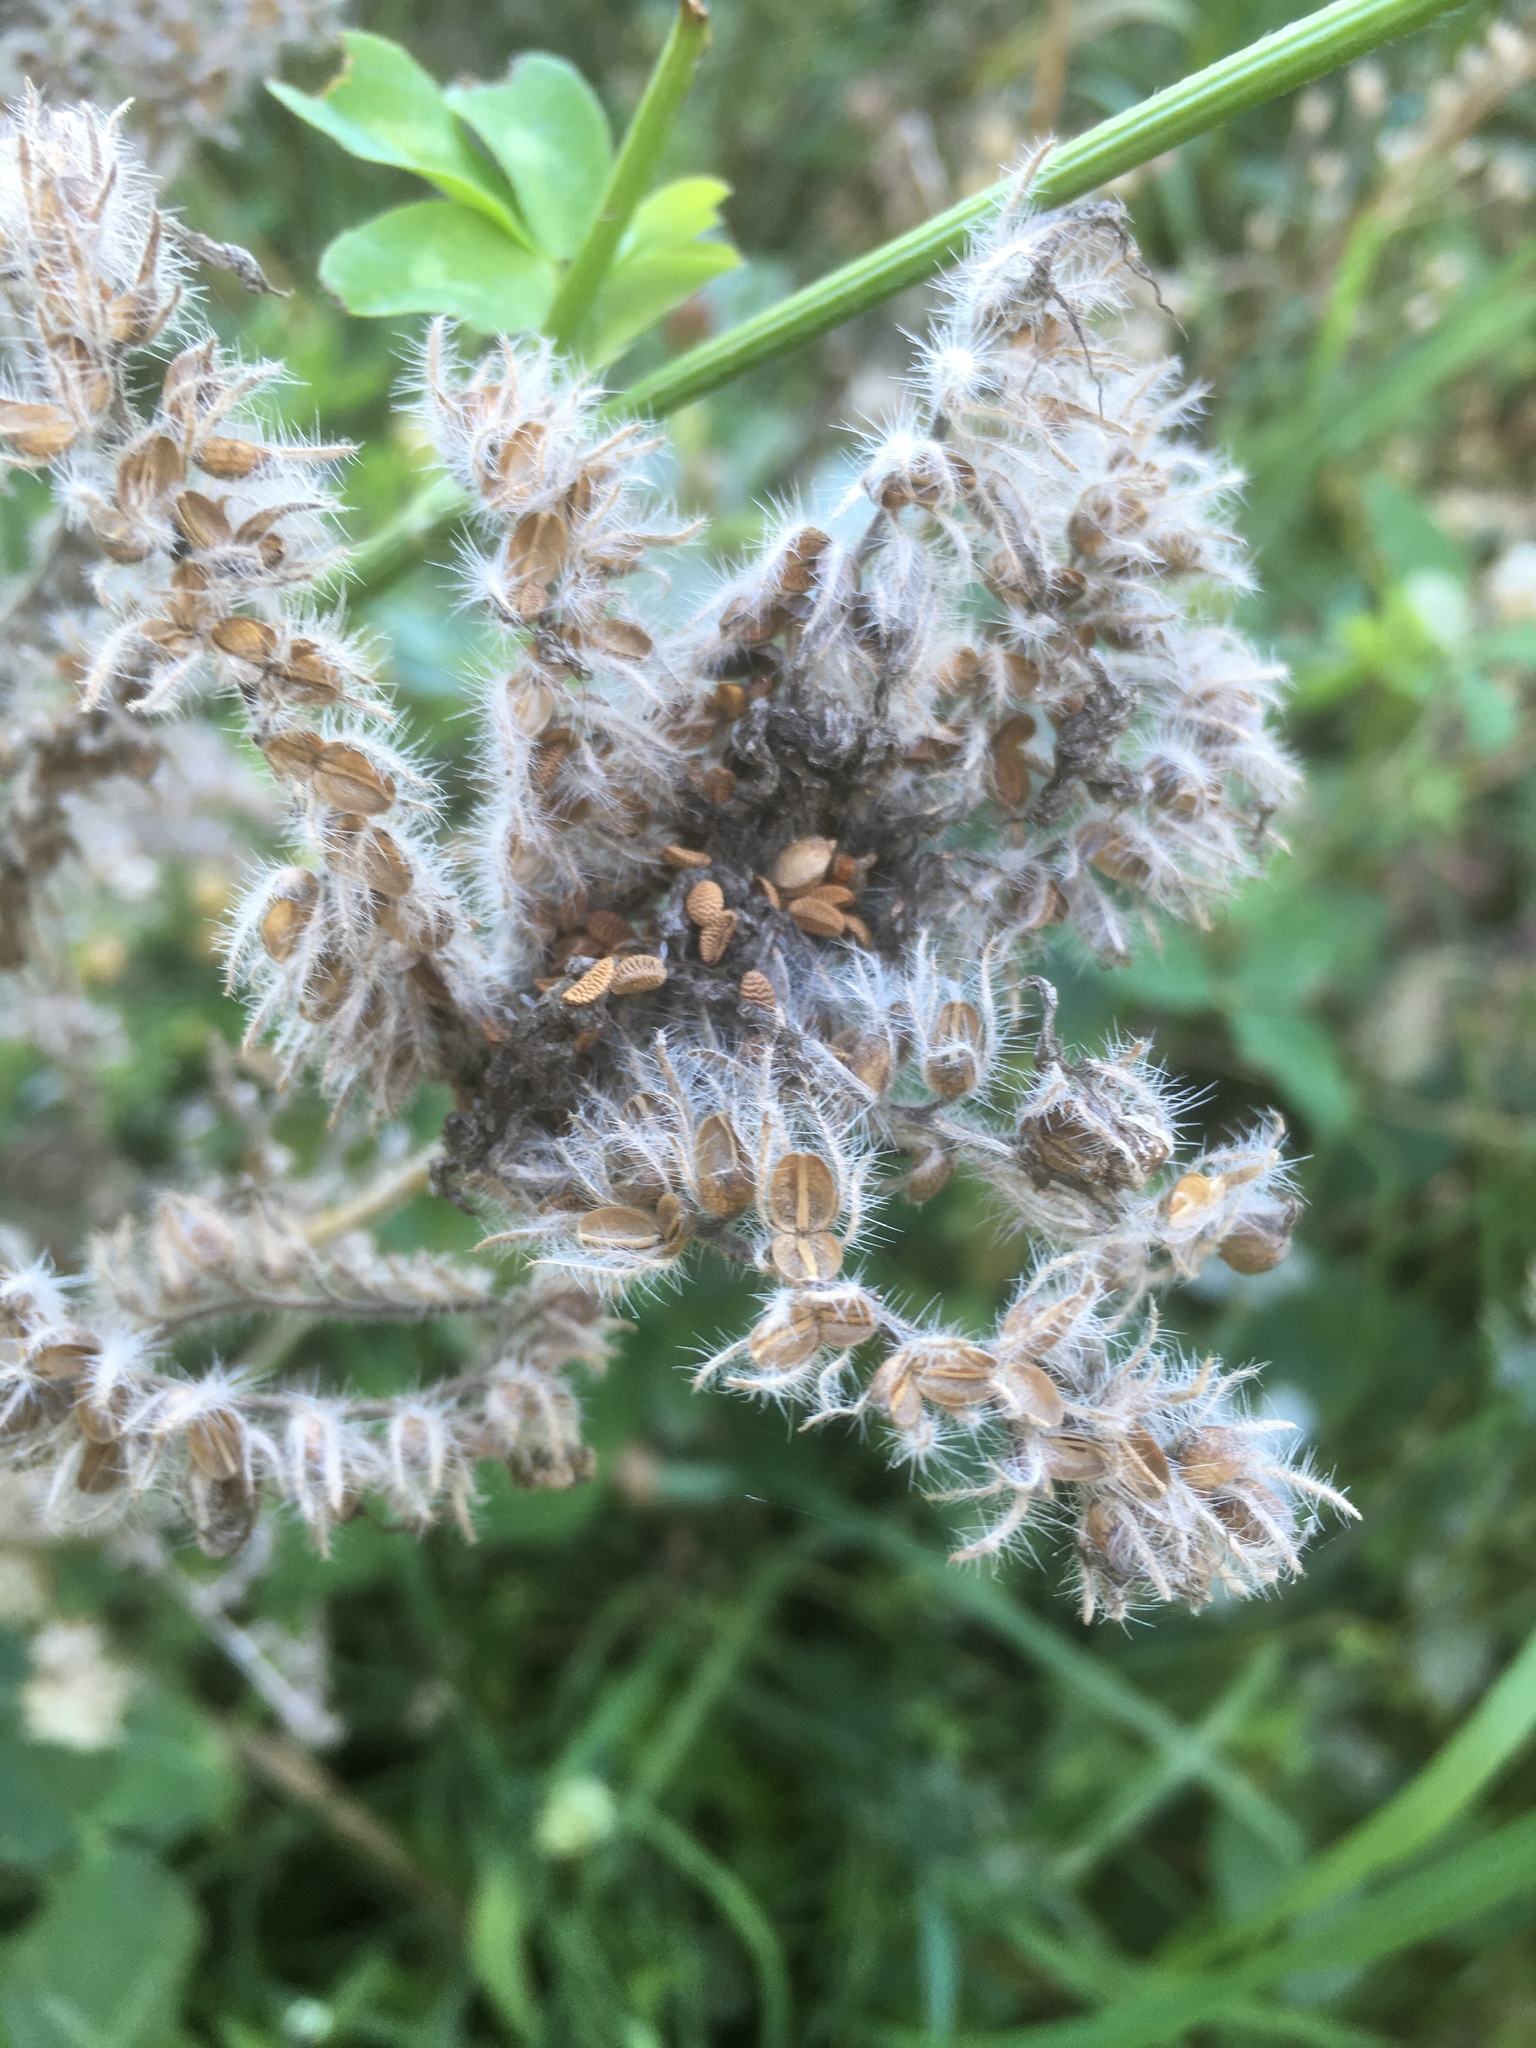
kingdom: Plantae
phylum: Tracheophyta
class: Magnoliopsida
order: Boraginales
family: Hydrophyllaceae
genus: Phacelia
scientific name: Phacelia tanacetifolia
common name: Phacelia
